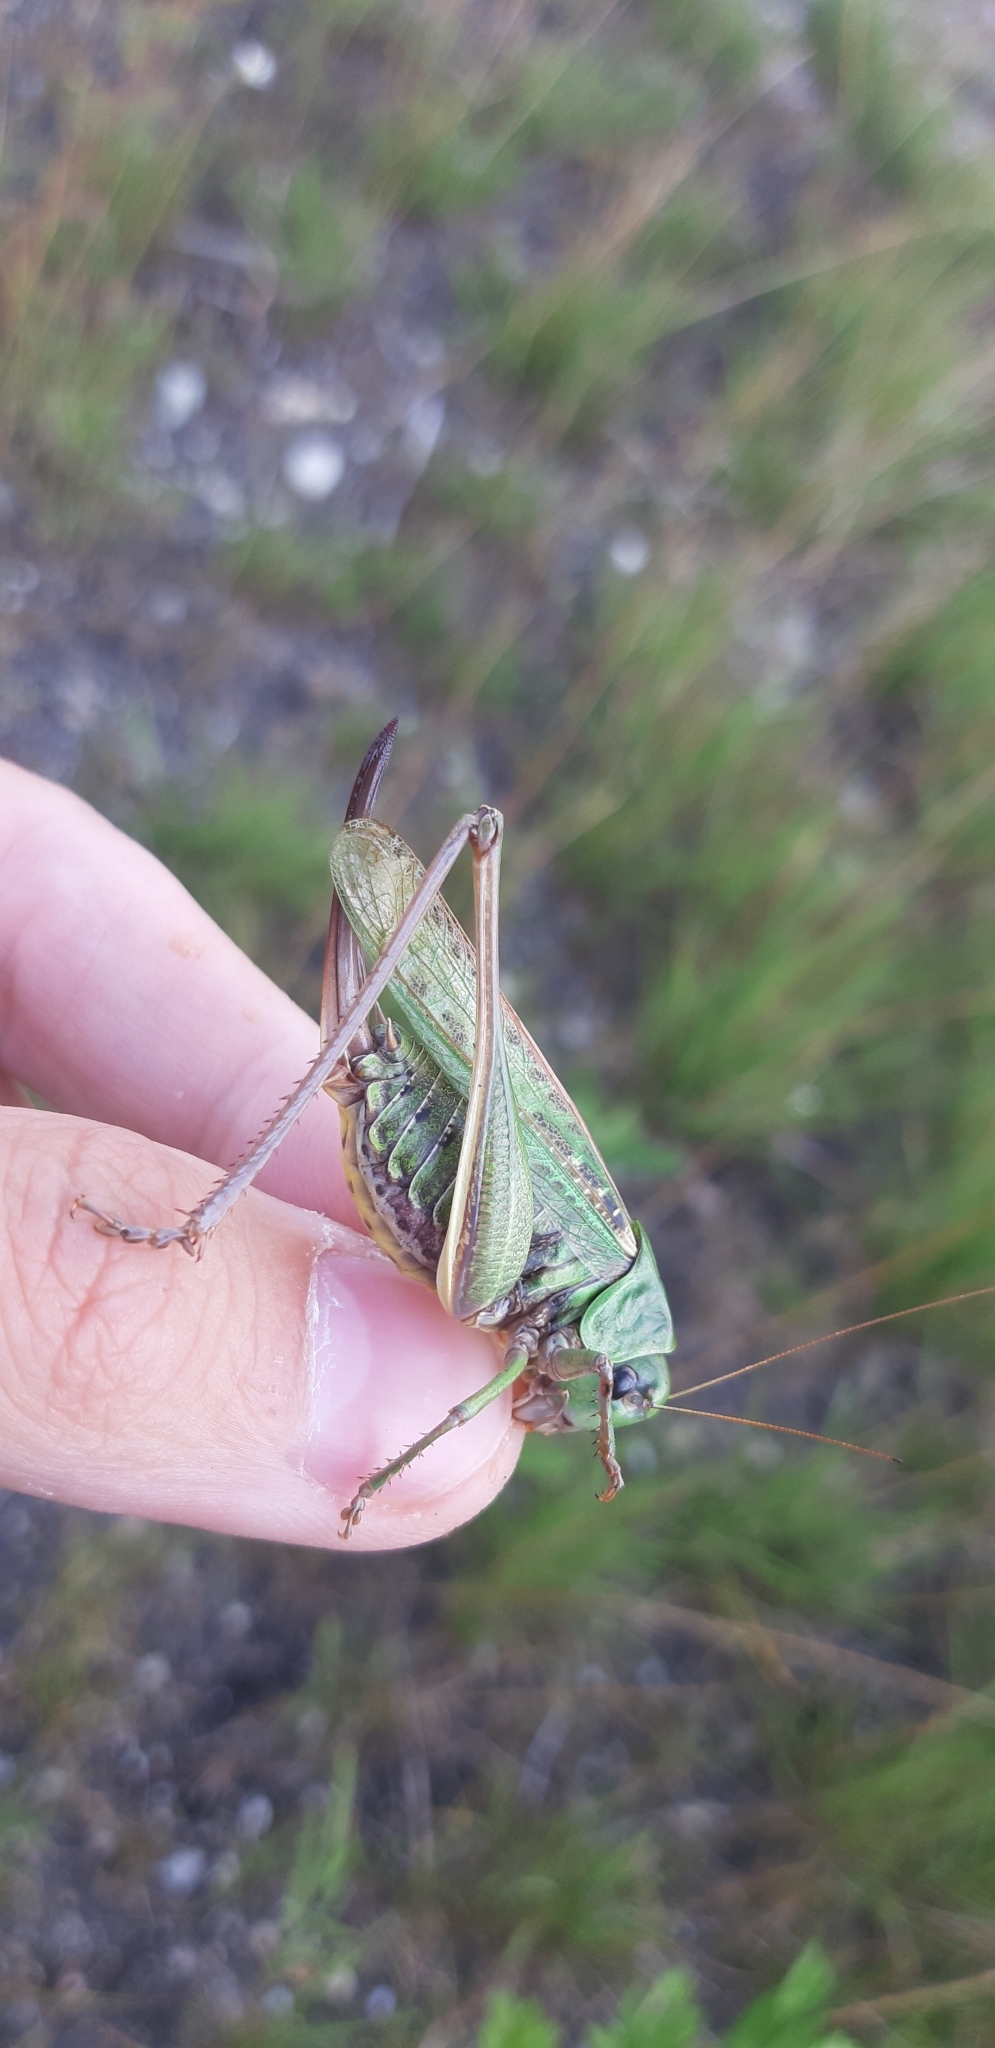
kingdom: Animalia
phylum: Arthropoda
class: Insecta
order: Orthoptera
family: Tettigoniidae
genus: Decticus
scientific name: Decticus verrucivorus
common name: Wart-biter
